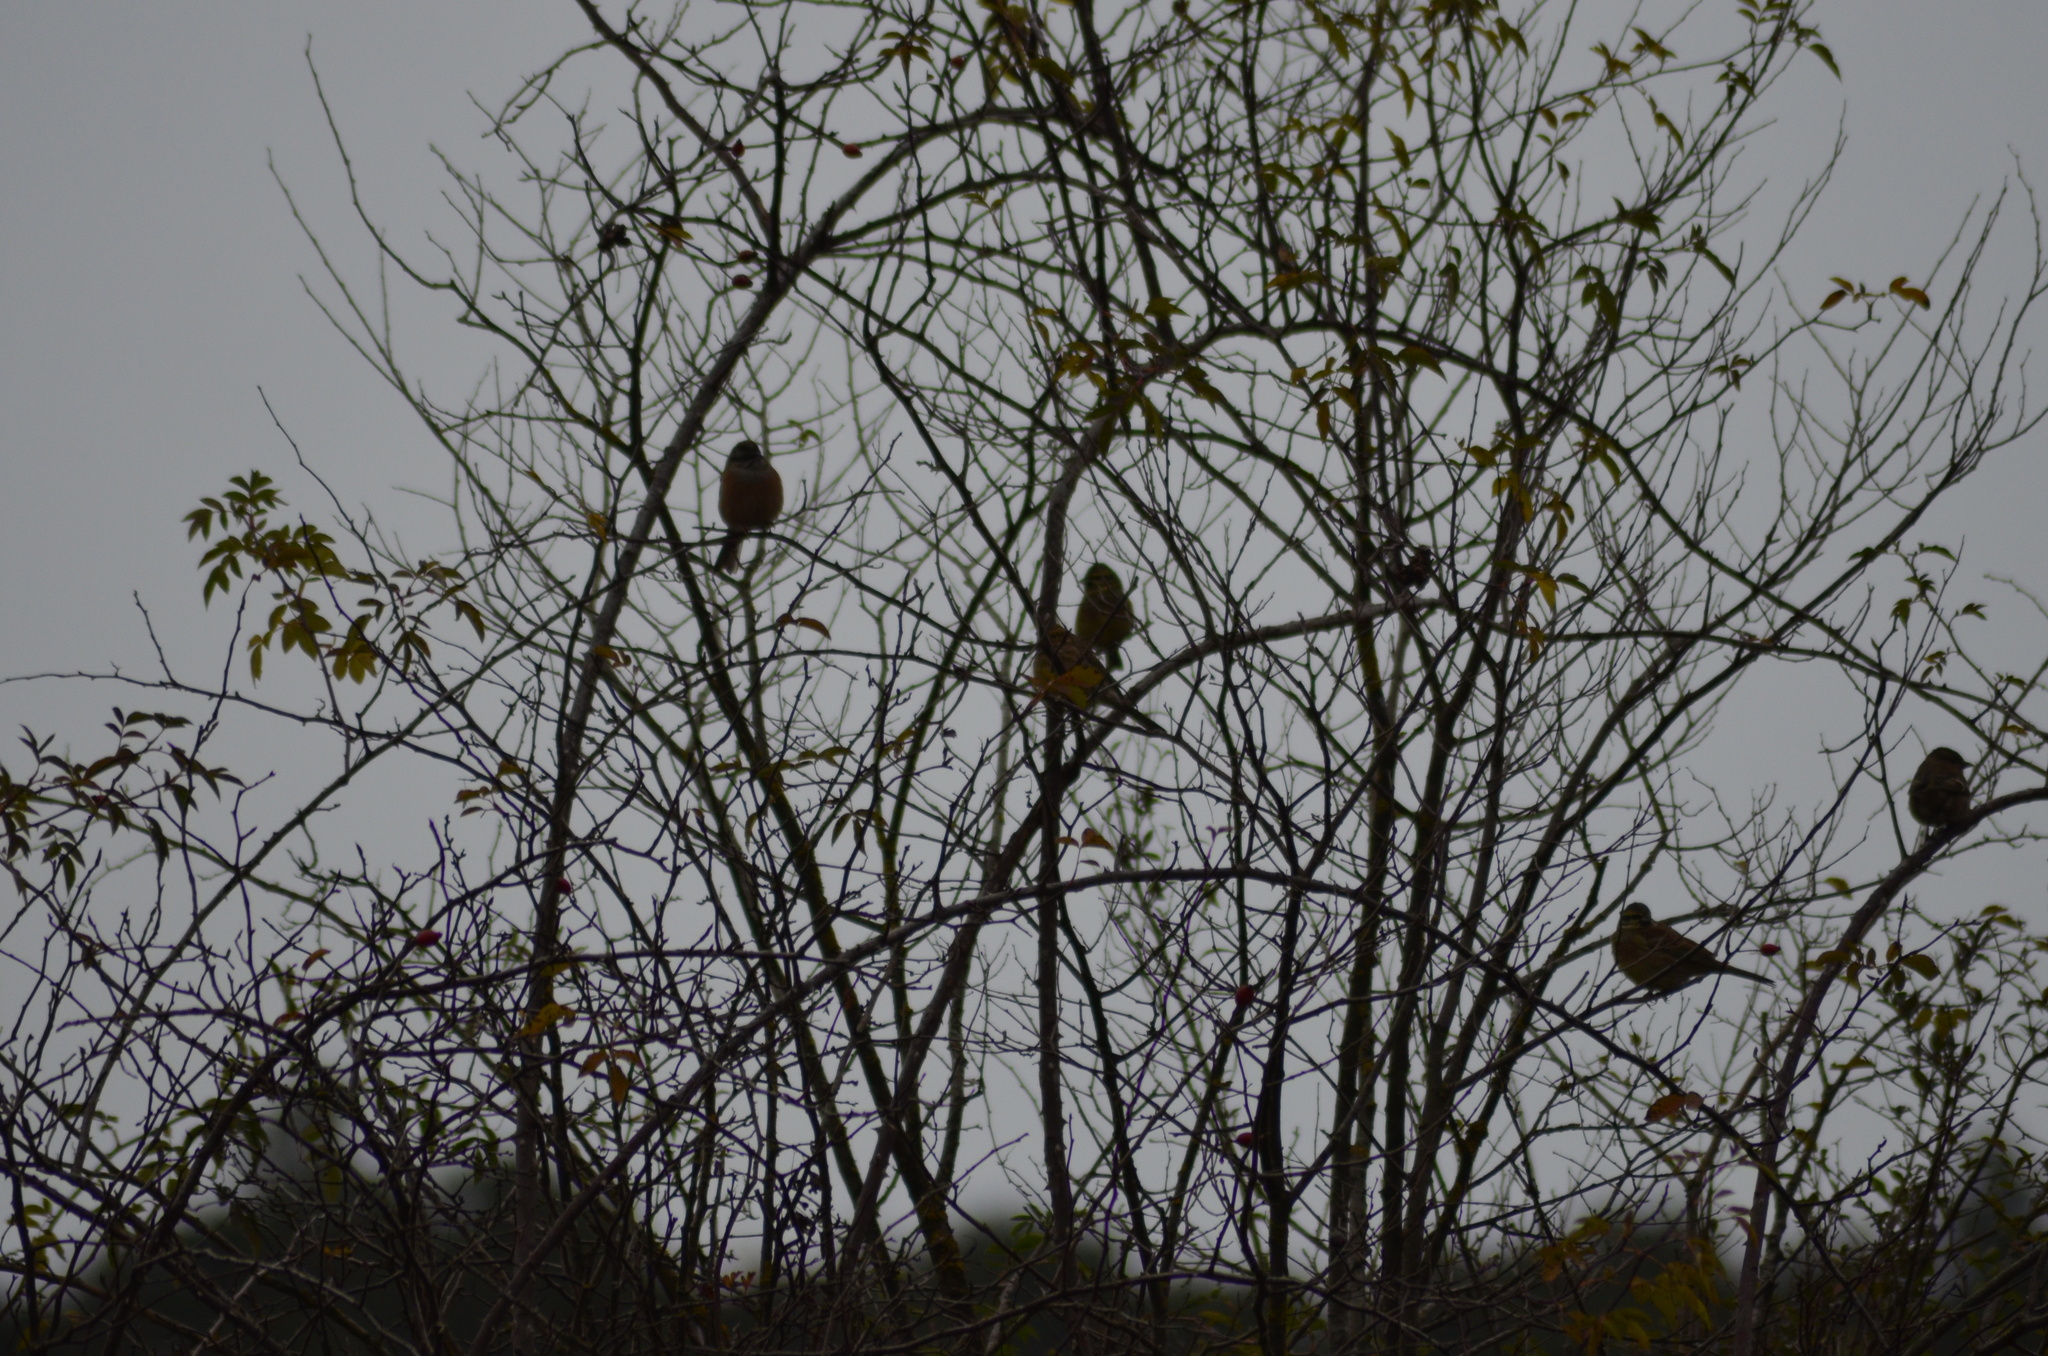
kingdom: Animalia
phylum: Chordata
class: Aves
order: Passeriformes
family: Emberizidae
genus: Emberiza
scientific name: Emberiza cia
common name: Rock bunting
